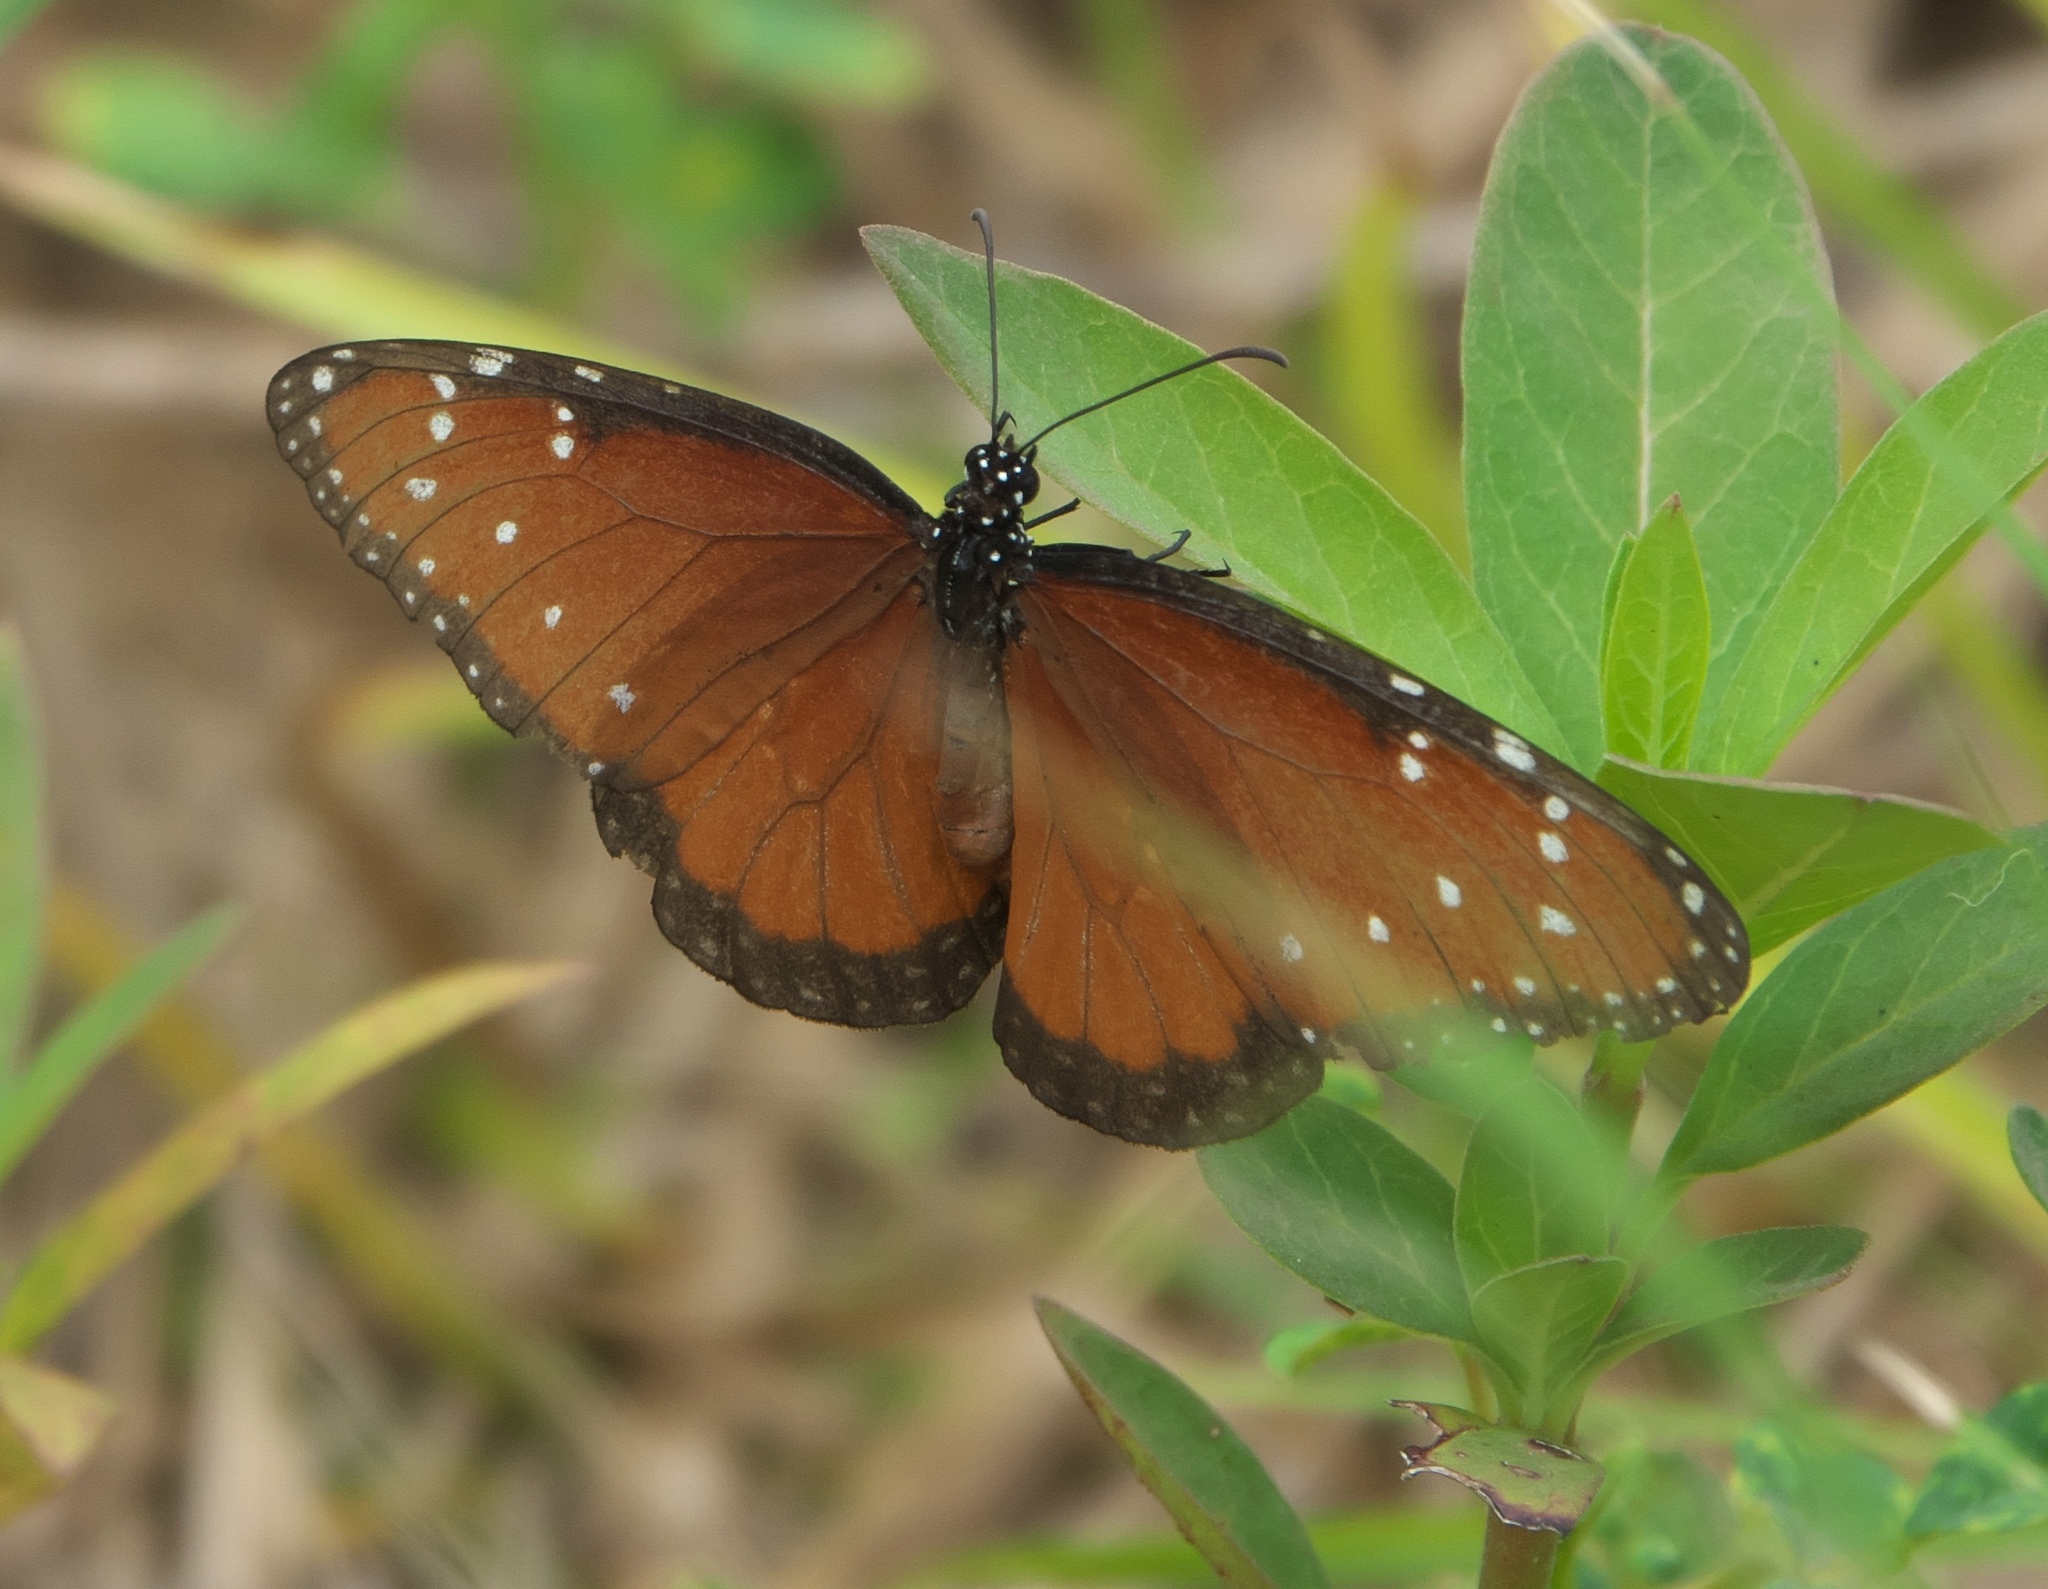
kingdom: Animalia
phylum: Arthropoda
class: Insecta
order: Lepidoptera
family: Nymphalidae
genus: Danaus
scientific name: Danaus gilippus
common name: Queen
